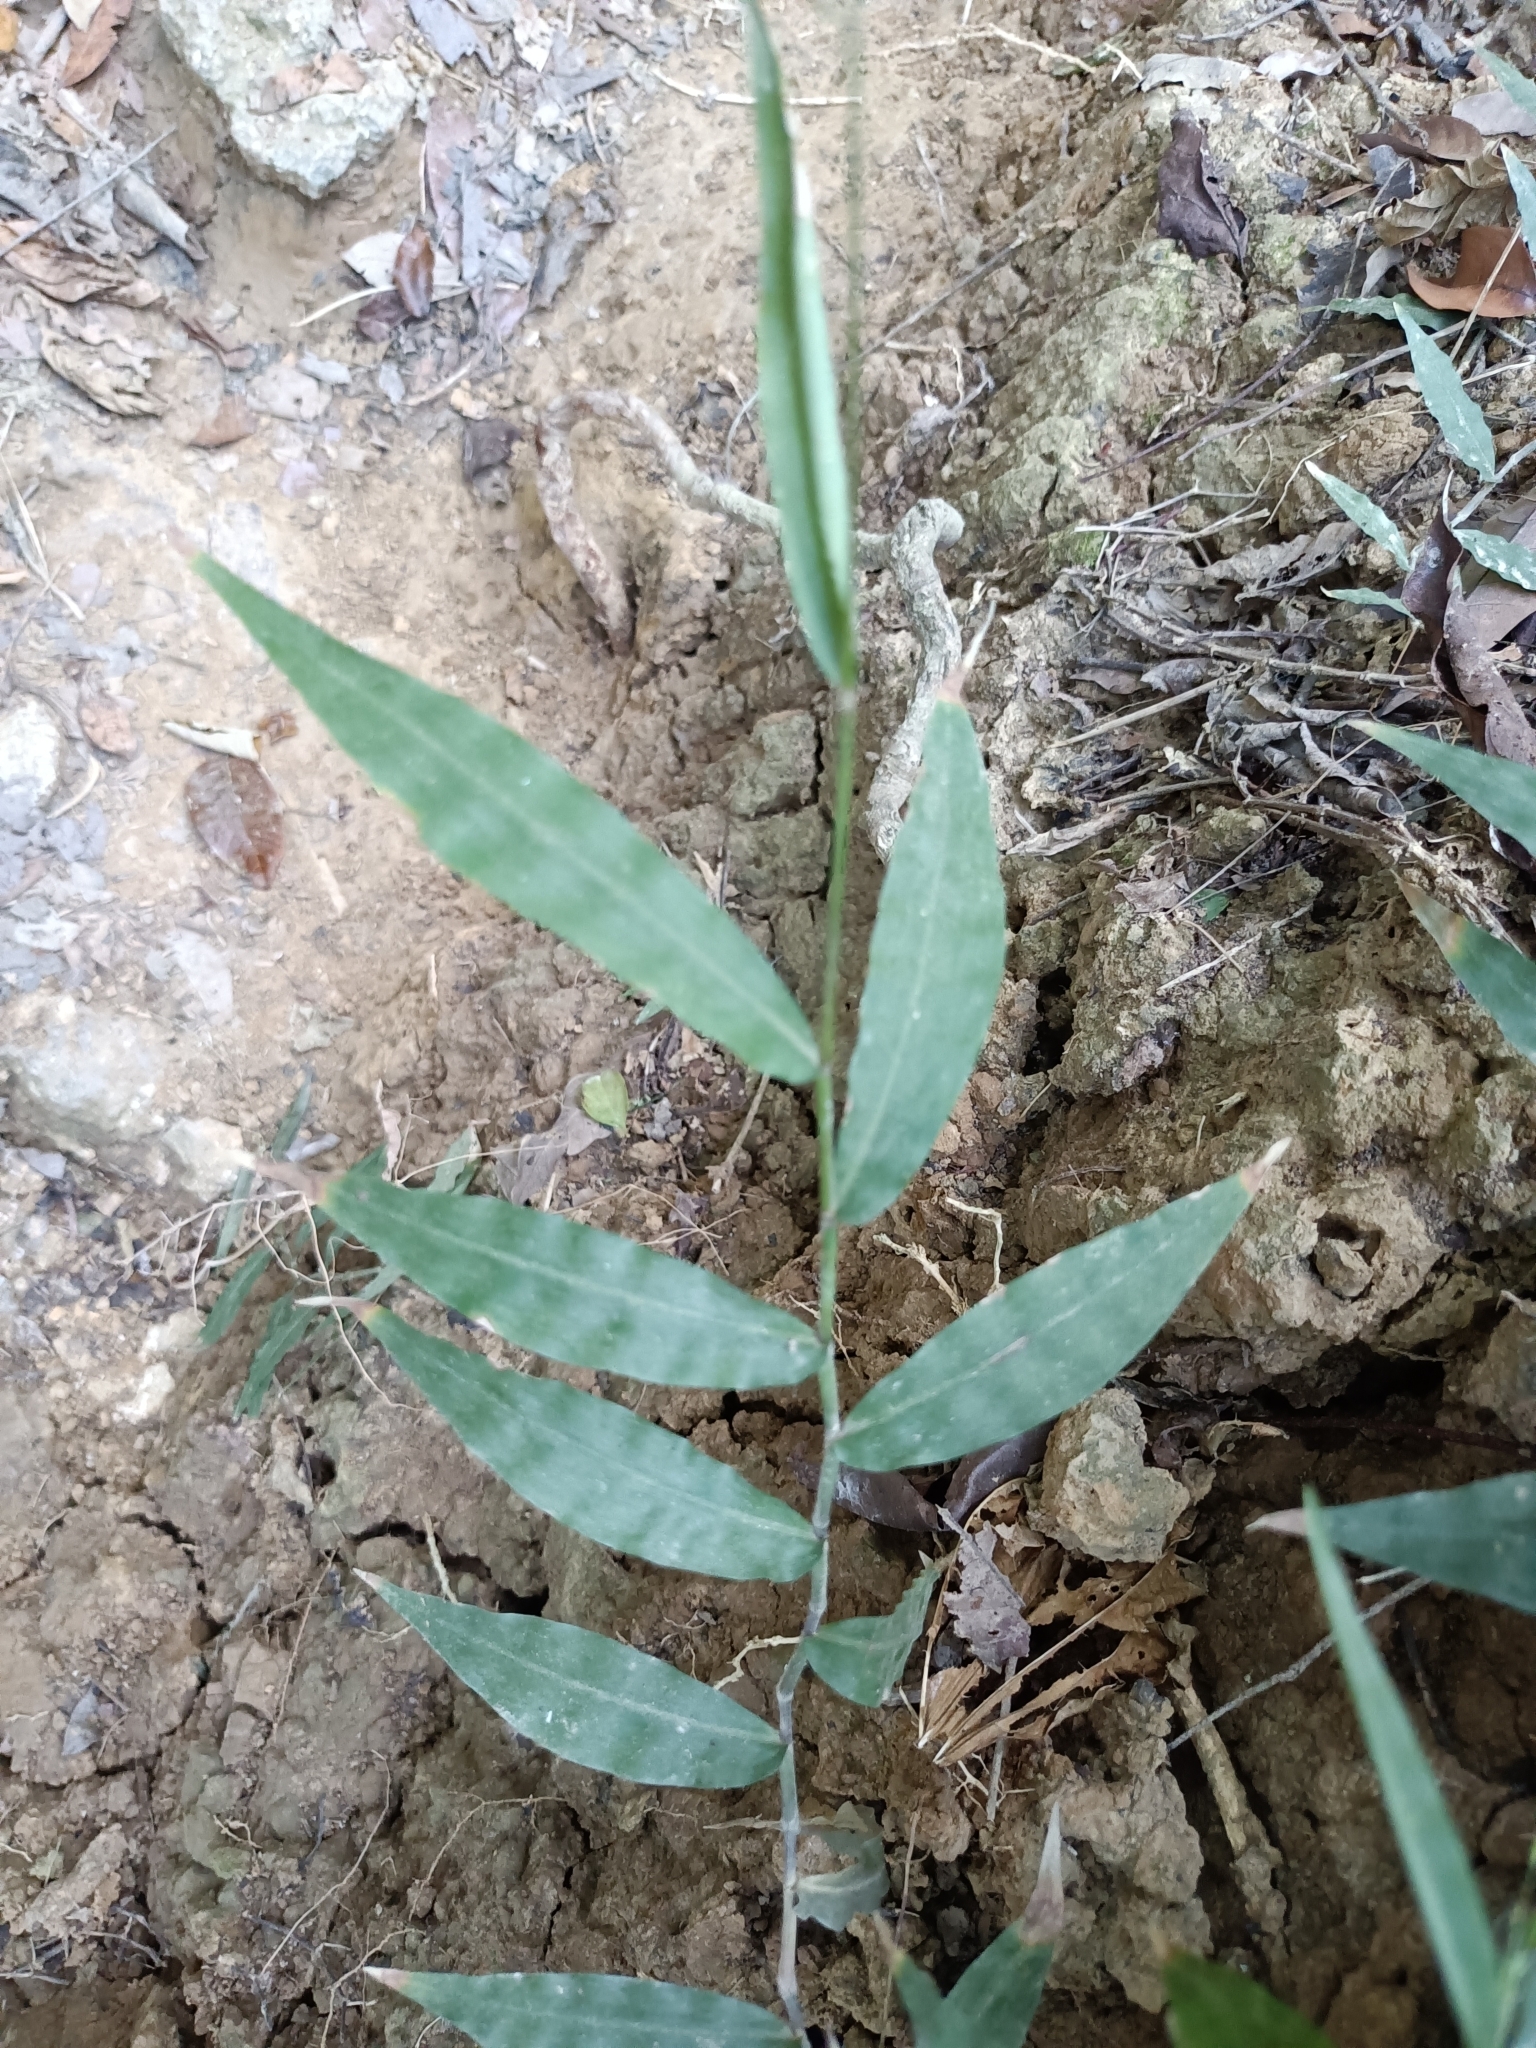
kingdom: Plantae
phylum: Tracheophyta
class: Liliopsida
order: Poales
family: Poaceae
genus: Oplismenus
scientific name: Oplismenus compositus
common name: Running mountain grass
